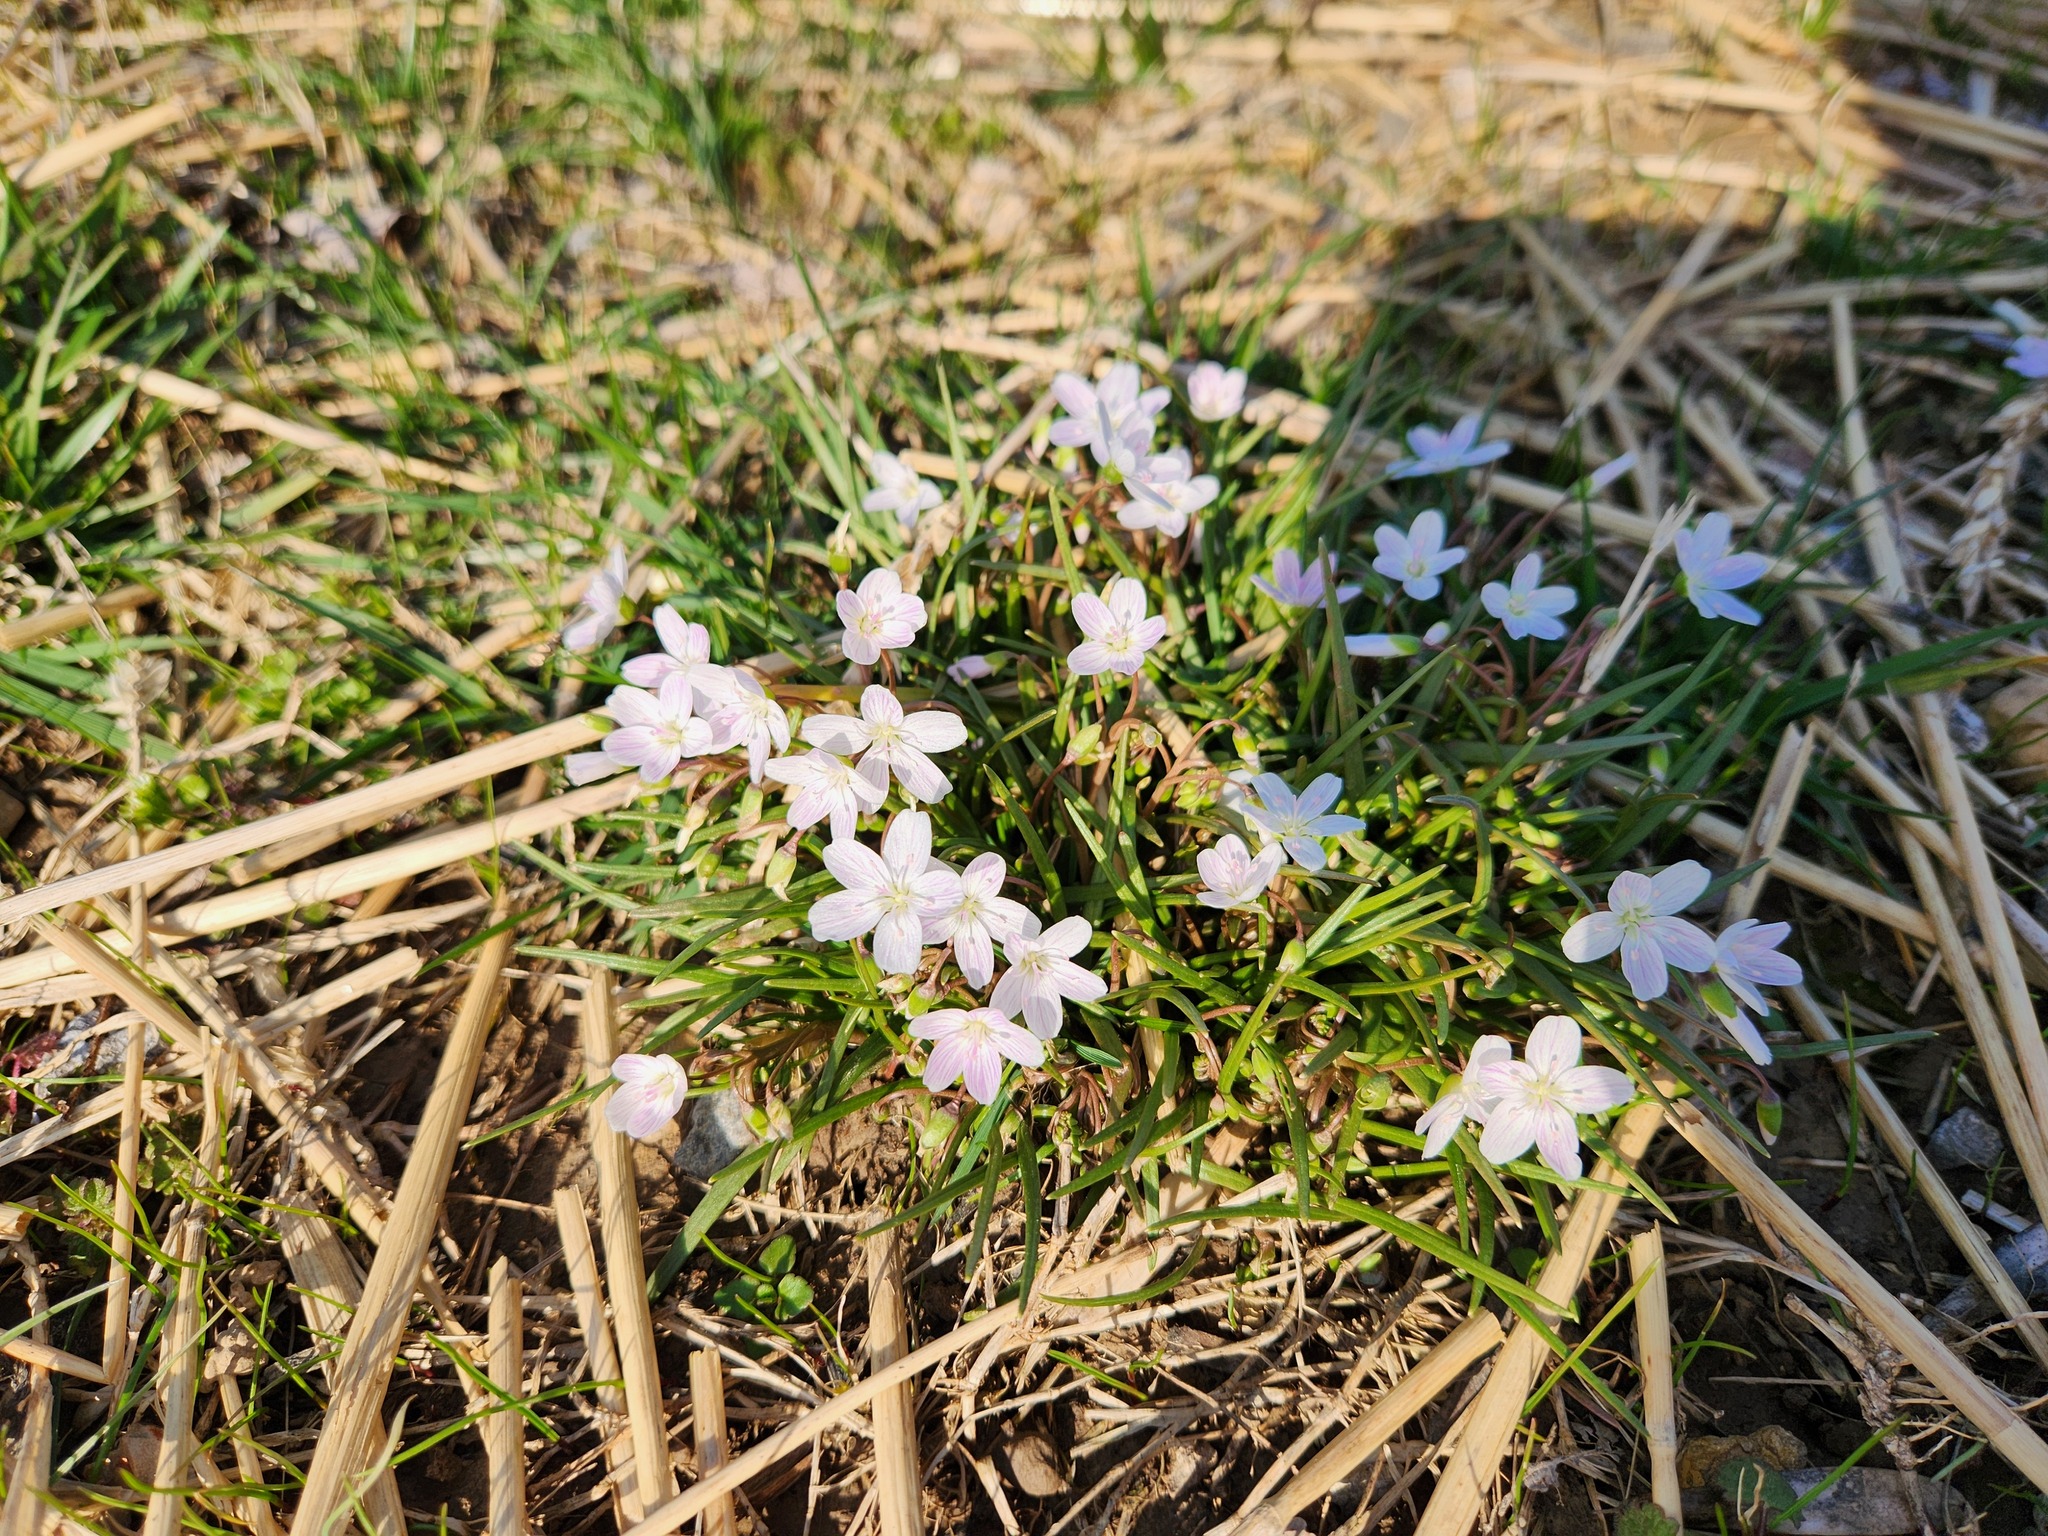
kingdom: Plantae
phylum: Tracheophyta
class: Magnoliopsida
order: Caryophyllales
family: Montiaceae
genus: Claytonia
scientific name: Claytonia virginica
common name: Virginia springbeauty
